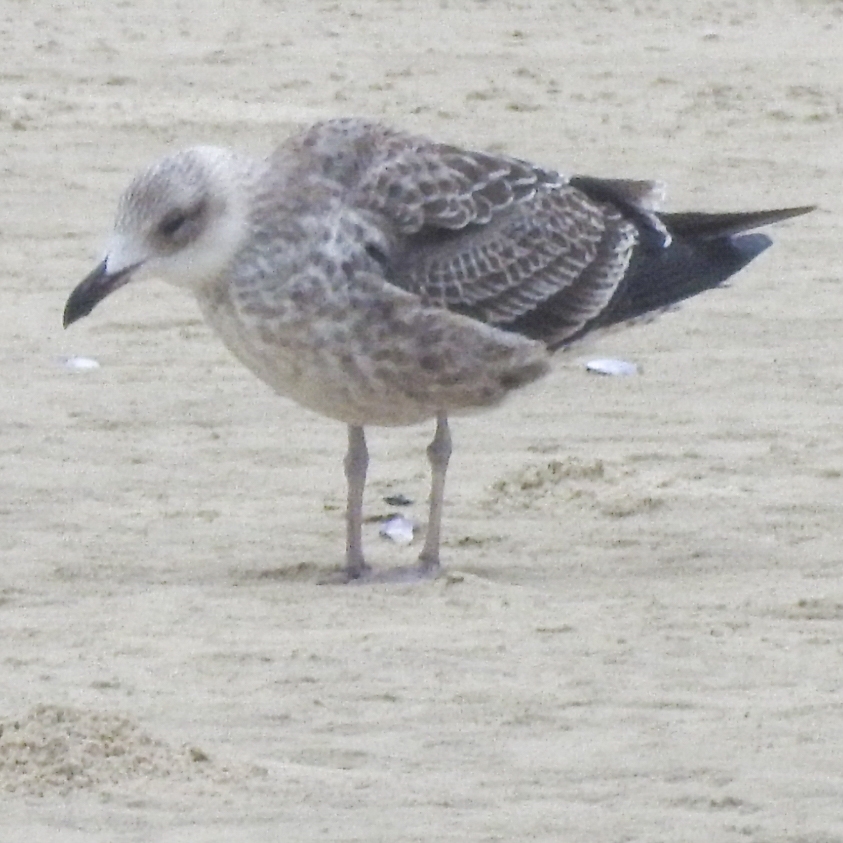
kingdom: Animalia
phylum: Chordata
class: Aves
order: Charadriiformes
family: Laridae
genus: Larus
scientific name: Larus dominicanus
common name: Kelp gull
